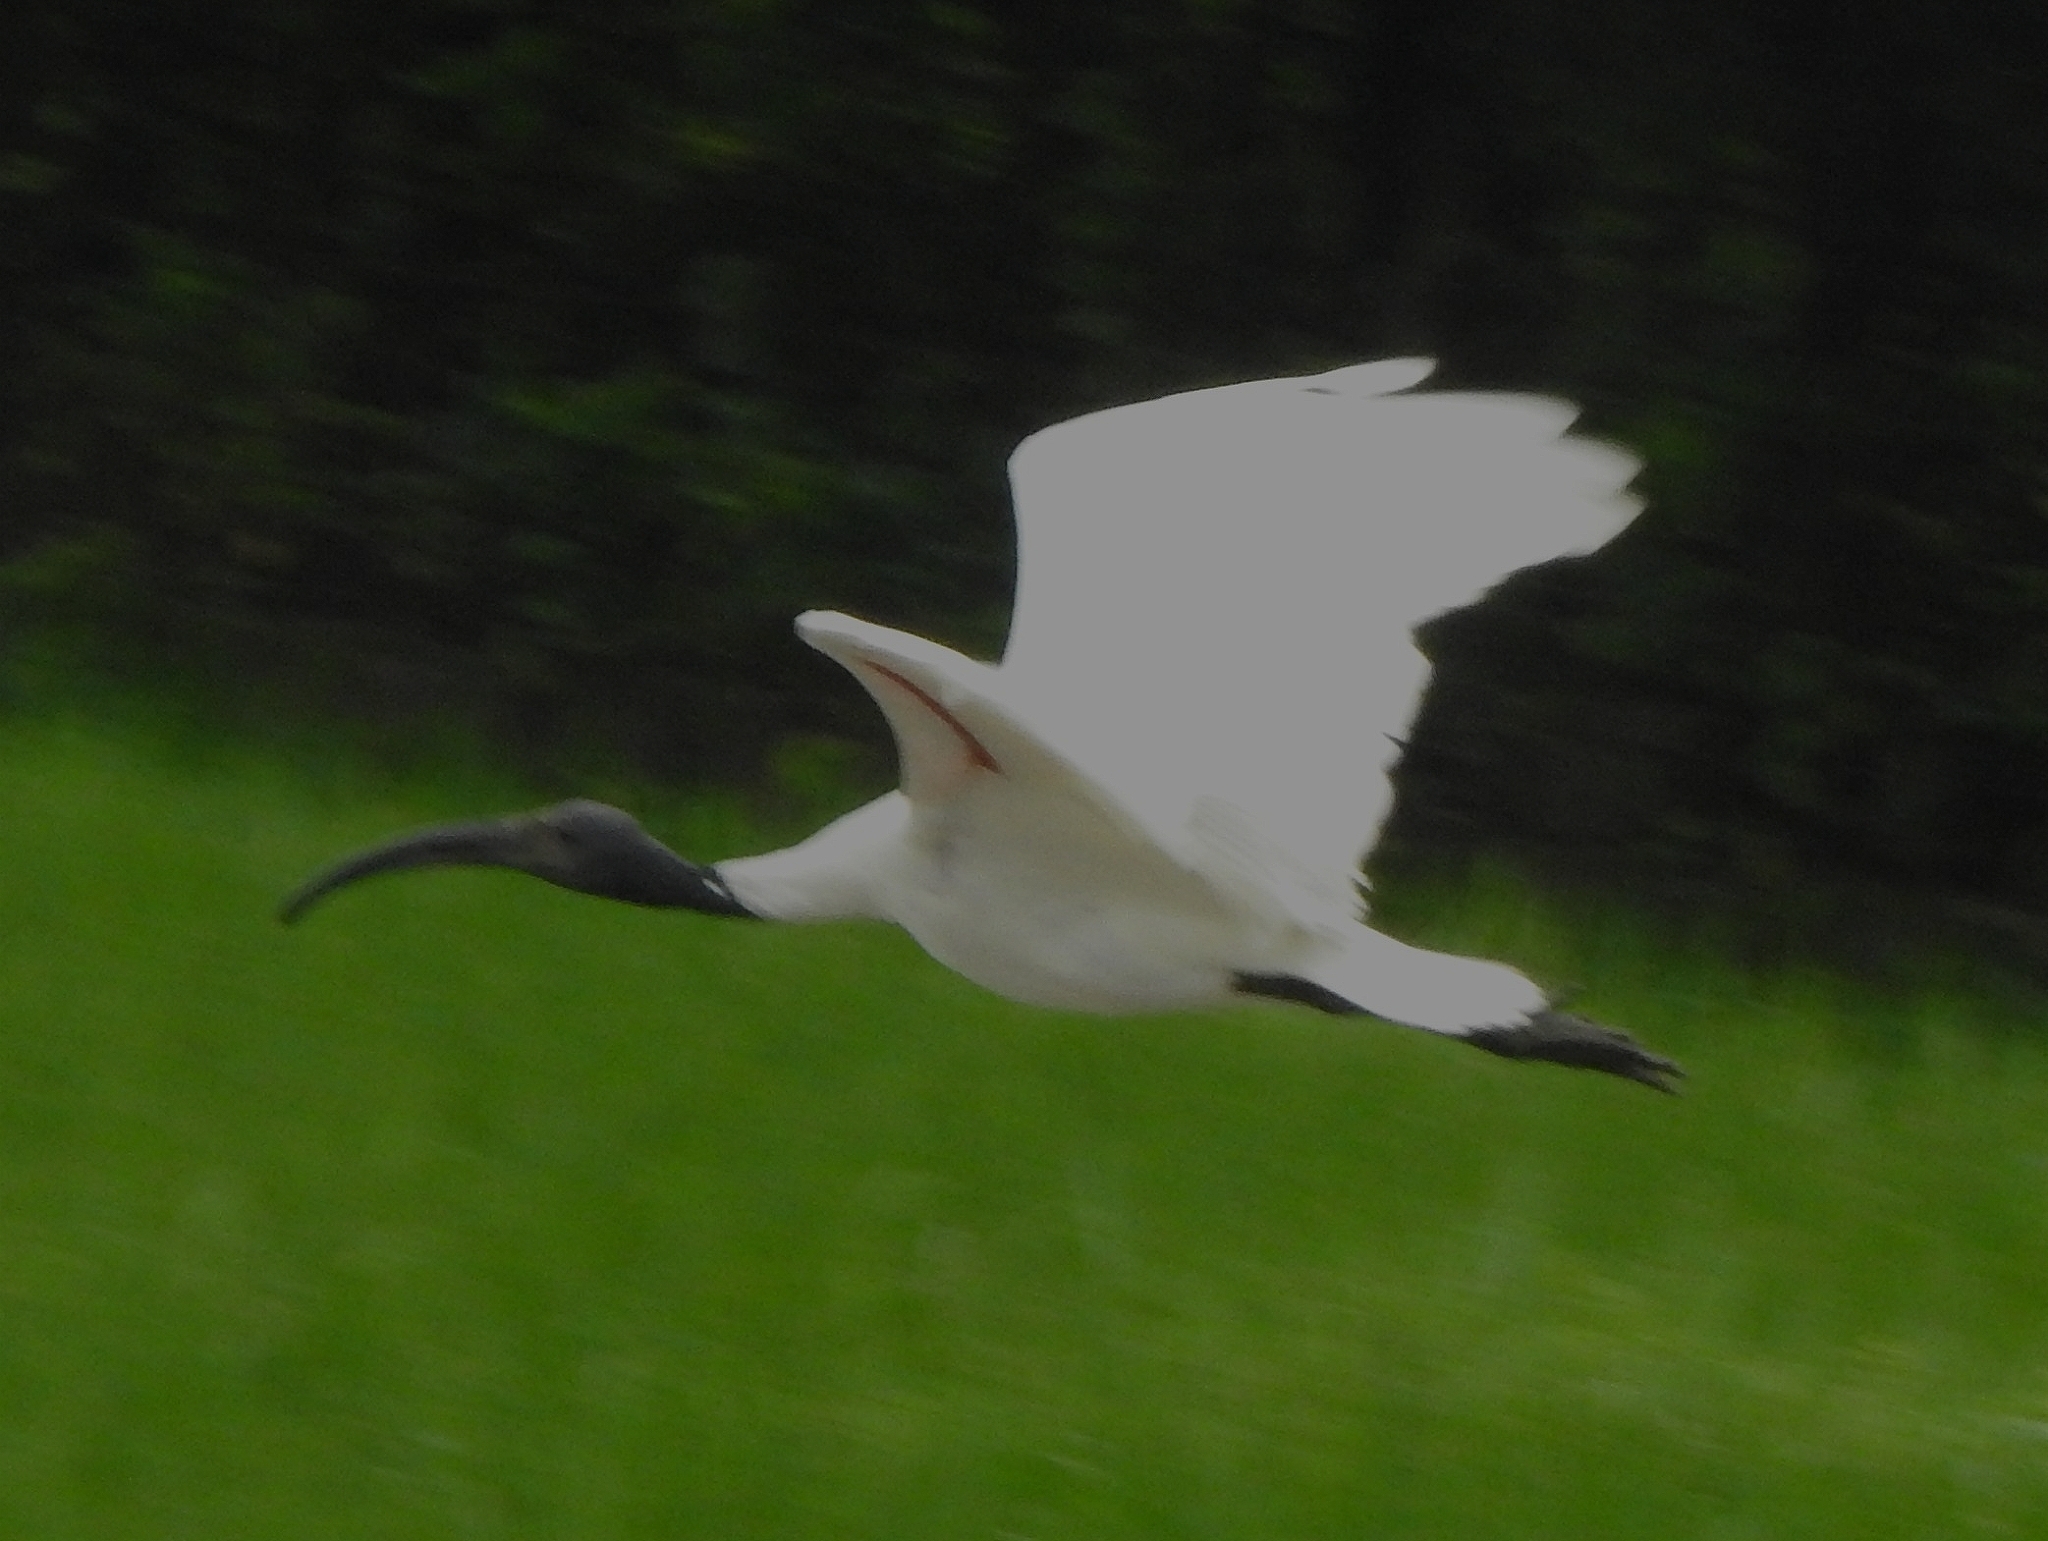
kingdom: Animalia
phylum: Chordata
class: Aves
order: Pelecaniformes
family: Threskiornithidae
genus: Threskiornis
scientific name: Threskiornis melanocephalus
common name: Black-headed ibis
